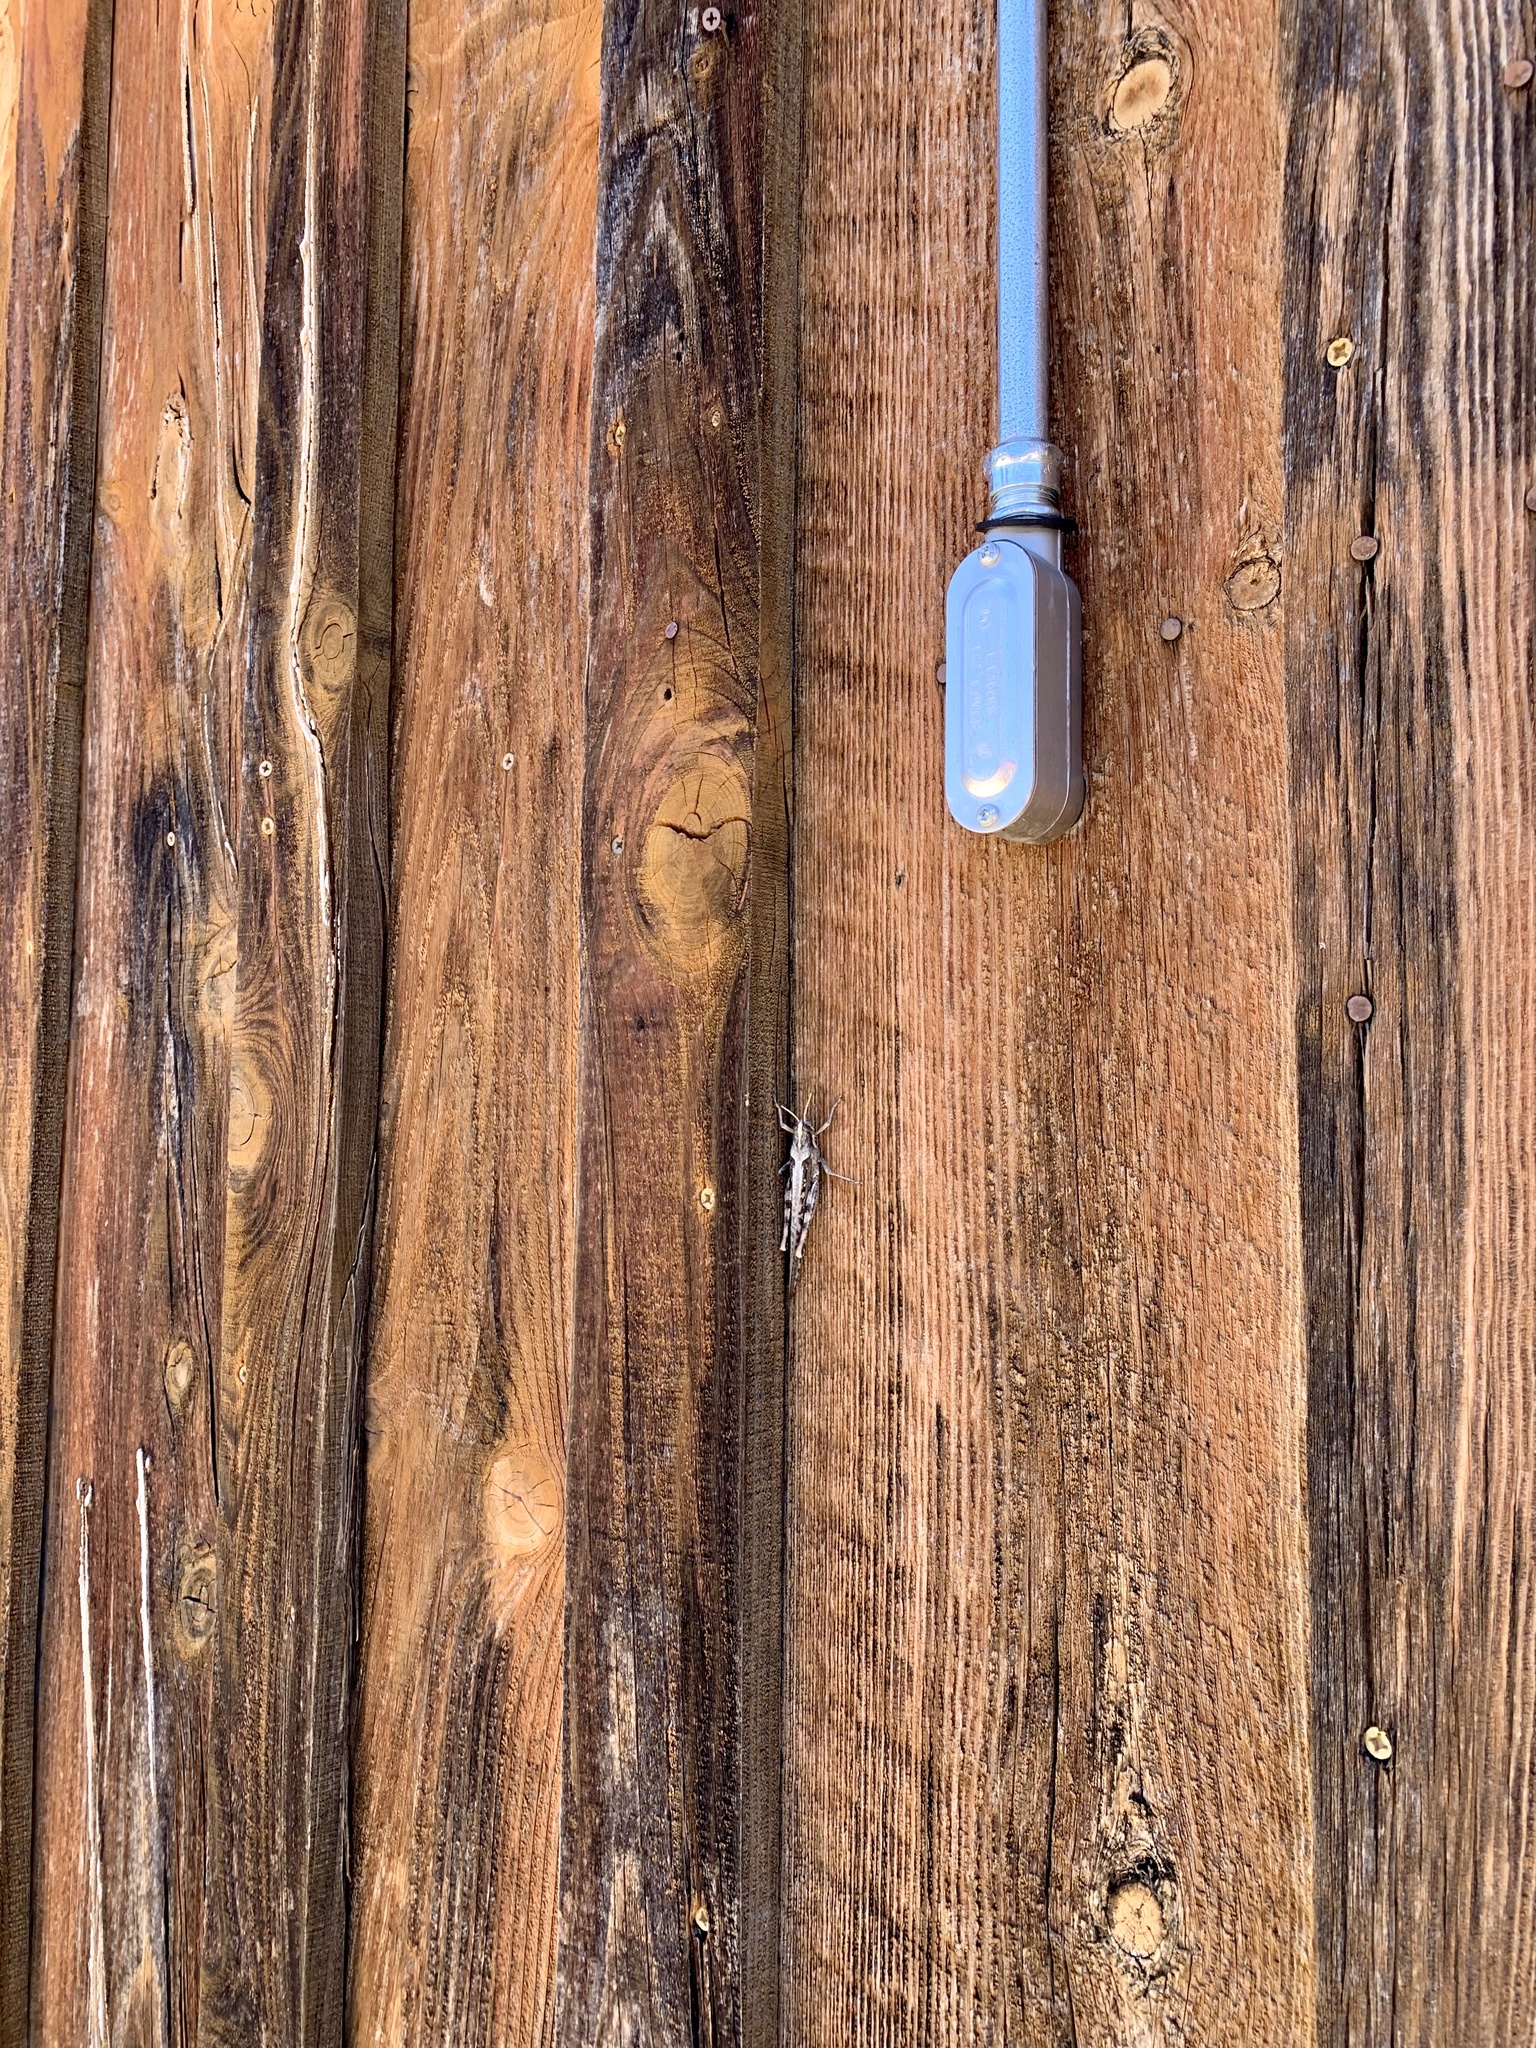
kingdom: Animalia
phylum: Arthropoda
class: Insecta
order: Orthoptera
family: Acrididae
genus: Schistocerca
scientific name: Schistocerca nitens
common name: Vagrant grasshopper
